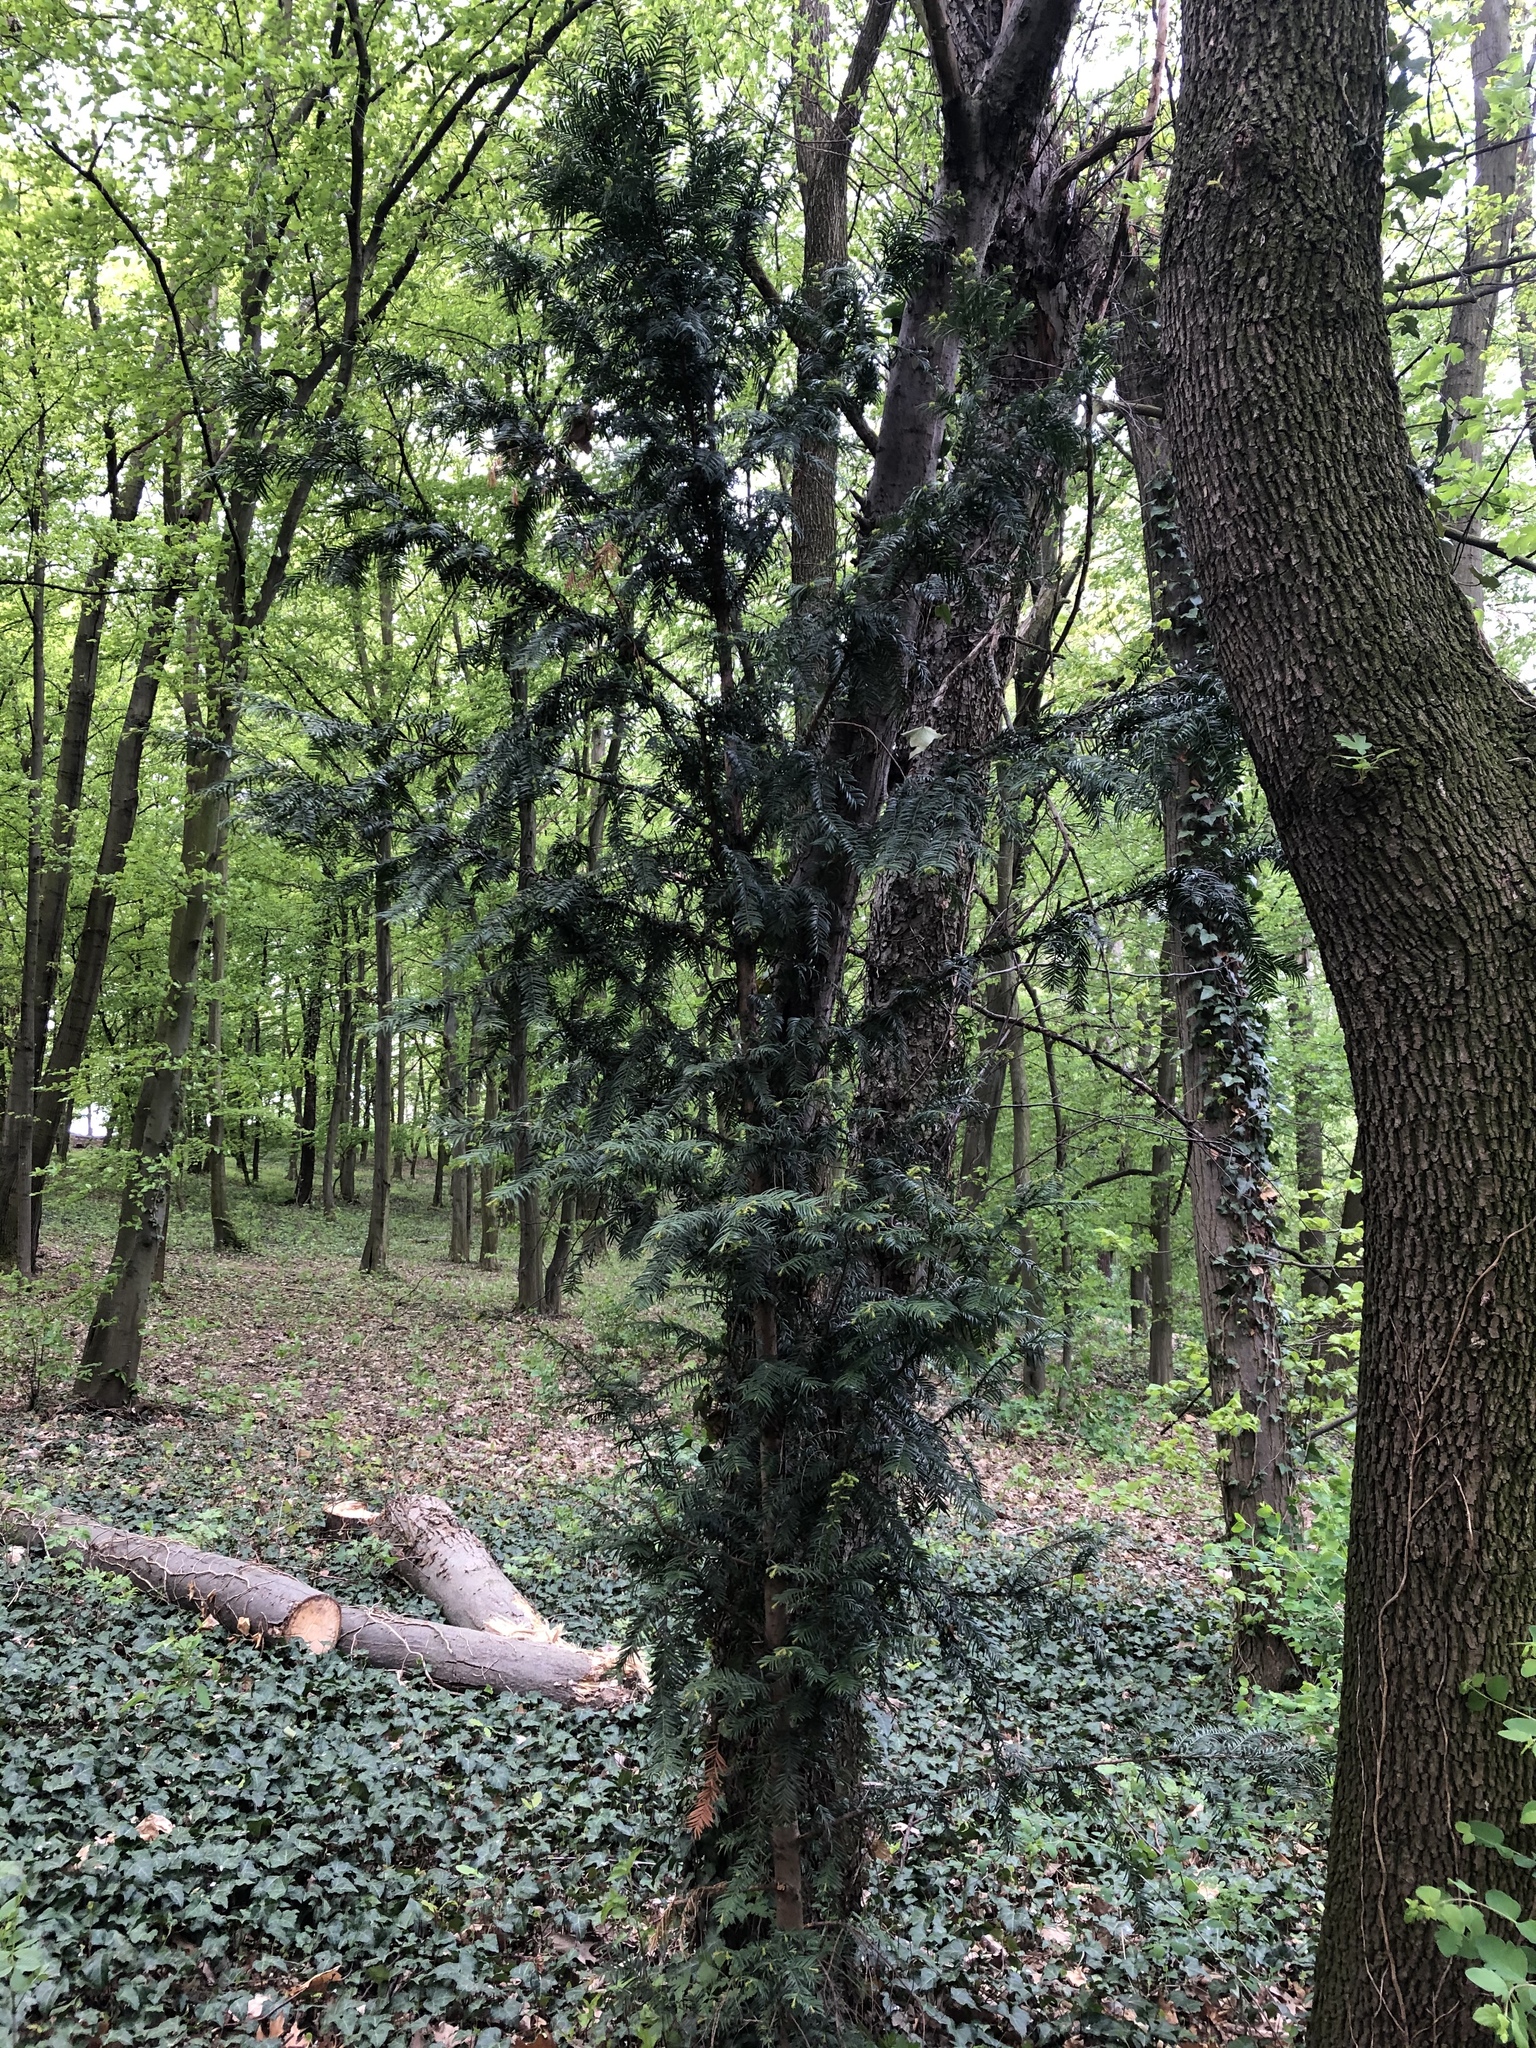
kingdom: Plantae
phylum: Tracheophyta
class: Pinopsida
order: Pinales
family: Taxaceae
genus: Taxus
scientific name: Taxus baccata
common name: Yew
